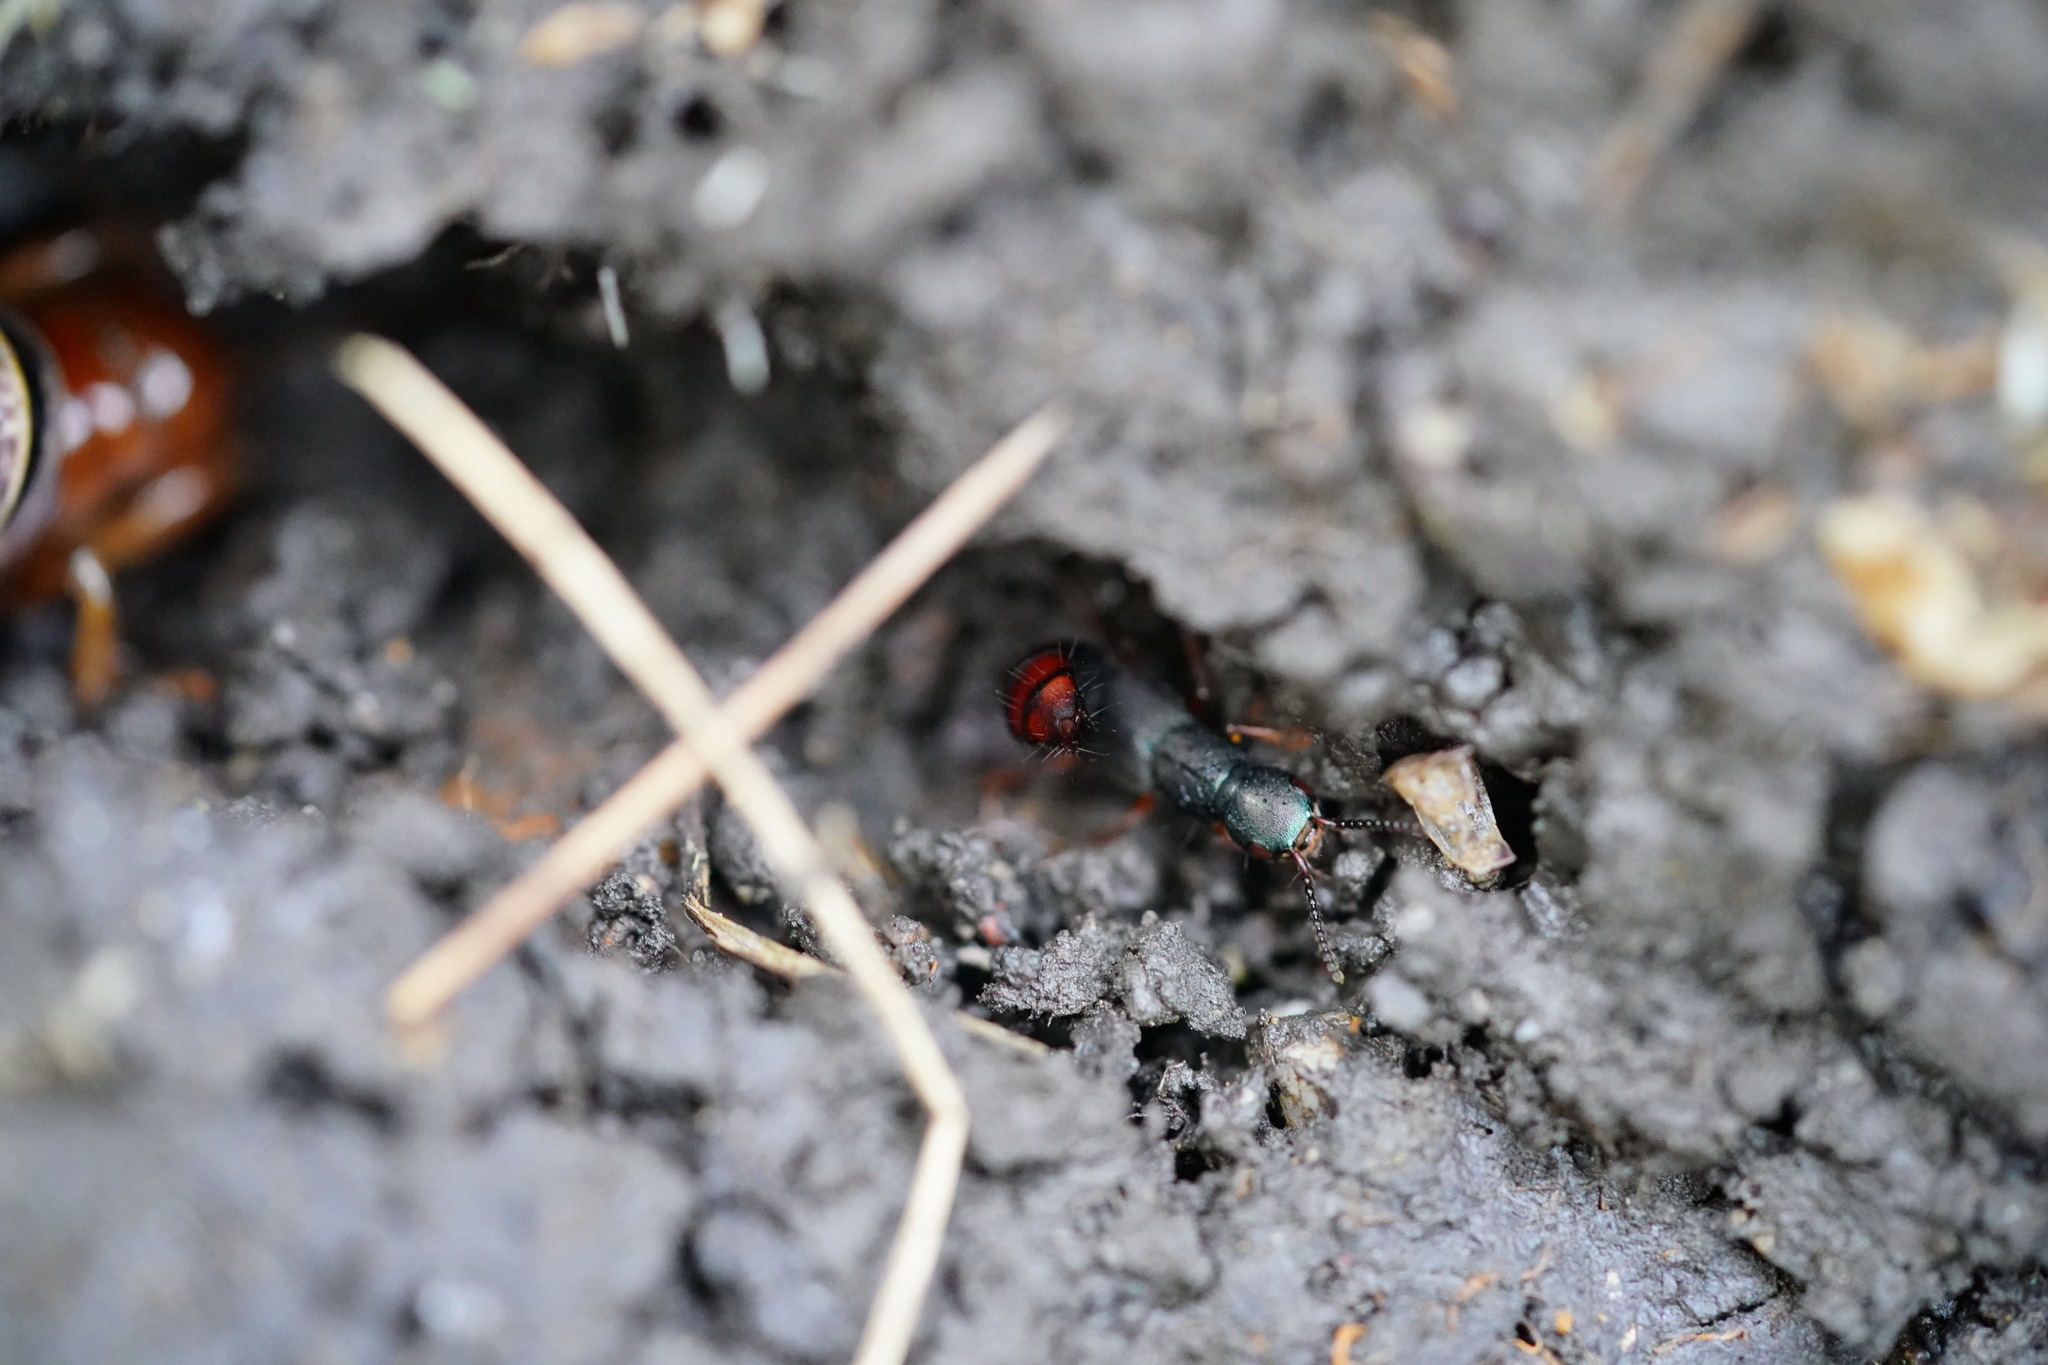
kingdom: Animalia
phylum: Arthropoda
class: Insecta
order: Coleoptera
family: Staphylinidae
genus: Dinothenarus
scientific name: Dinothenarus luteipes
